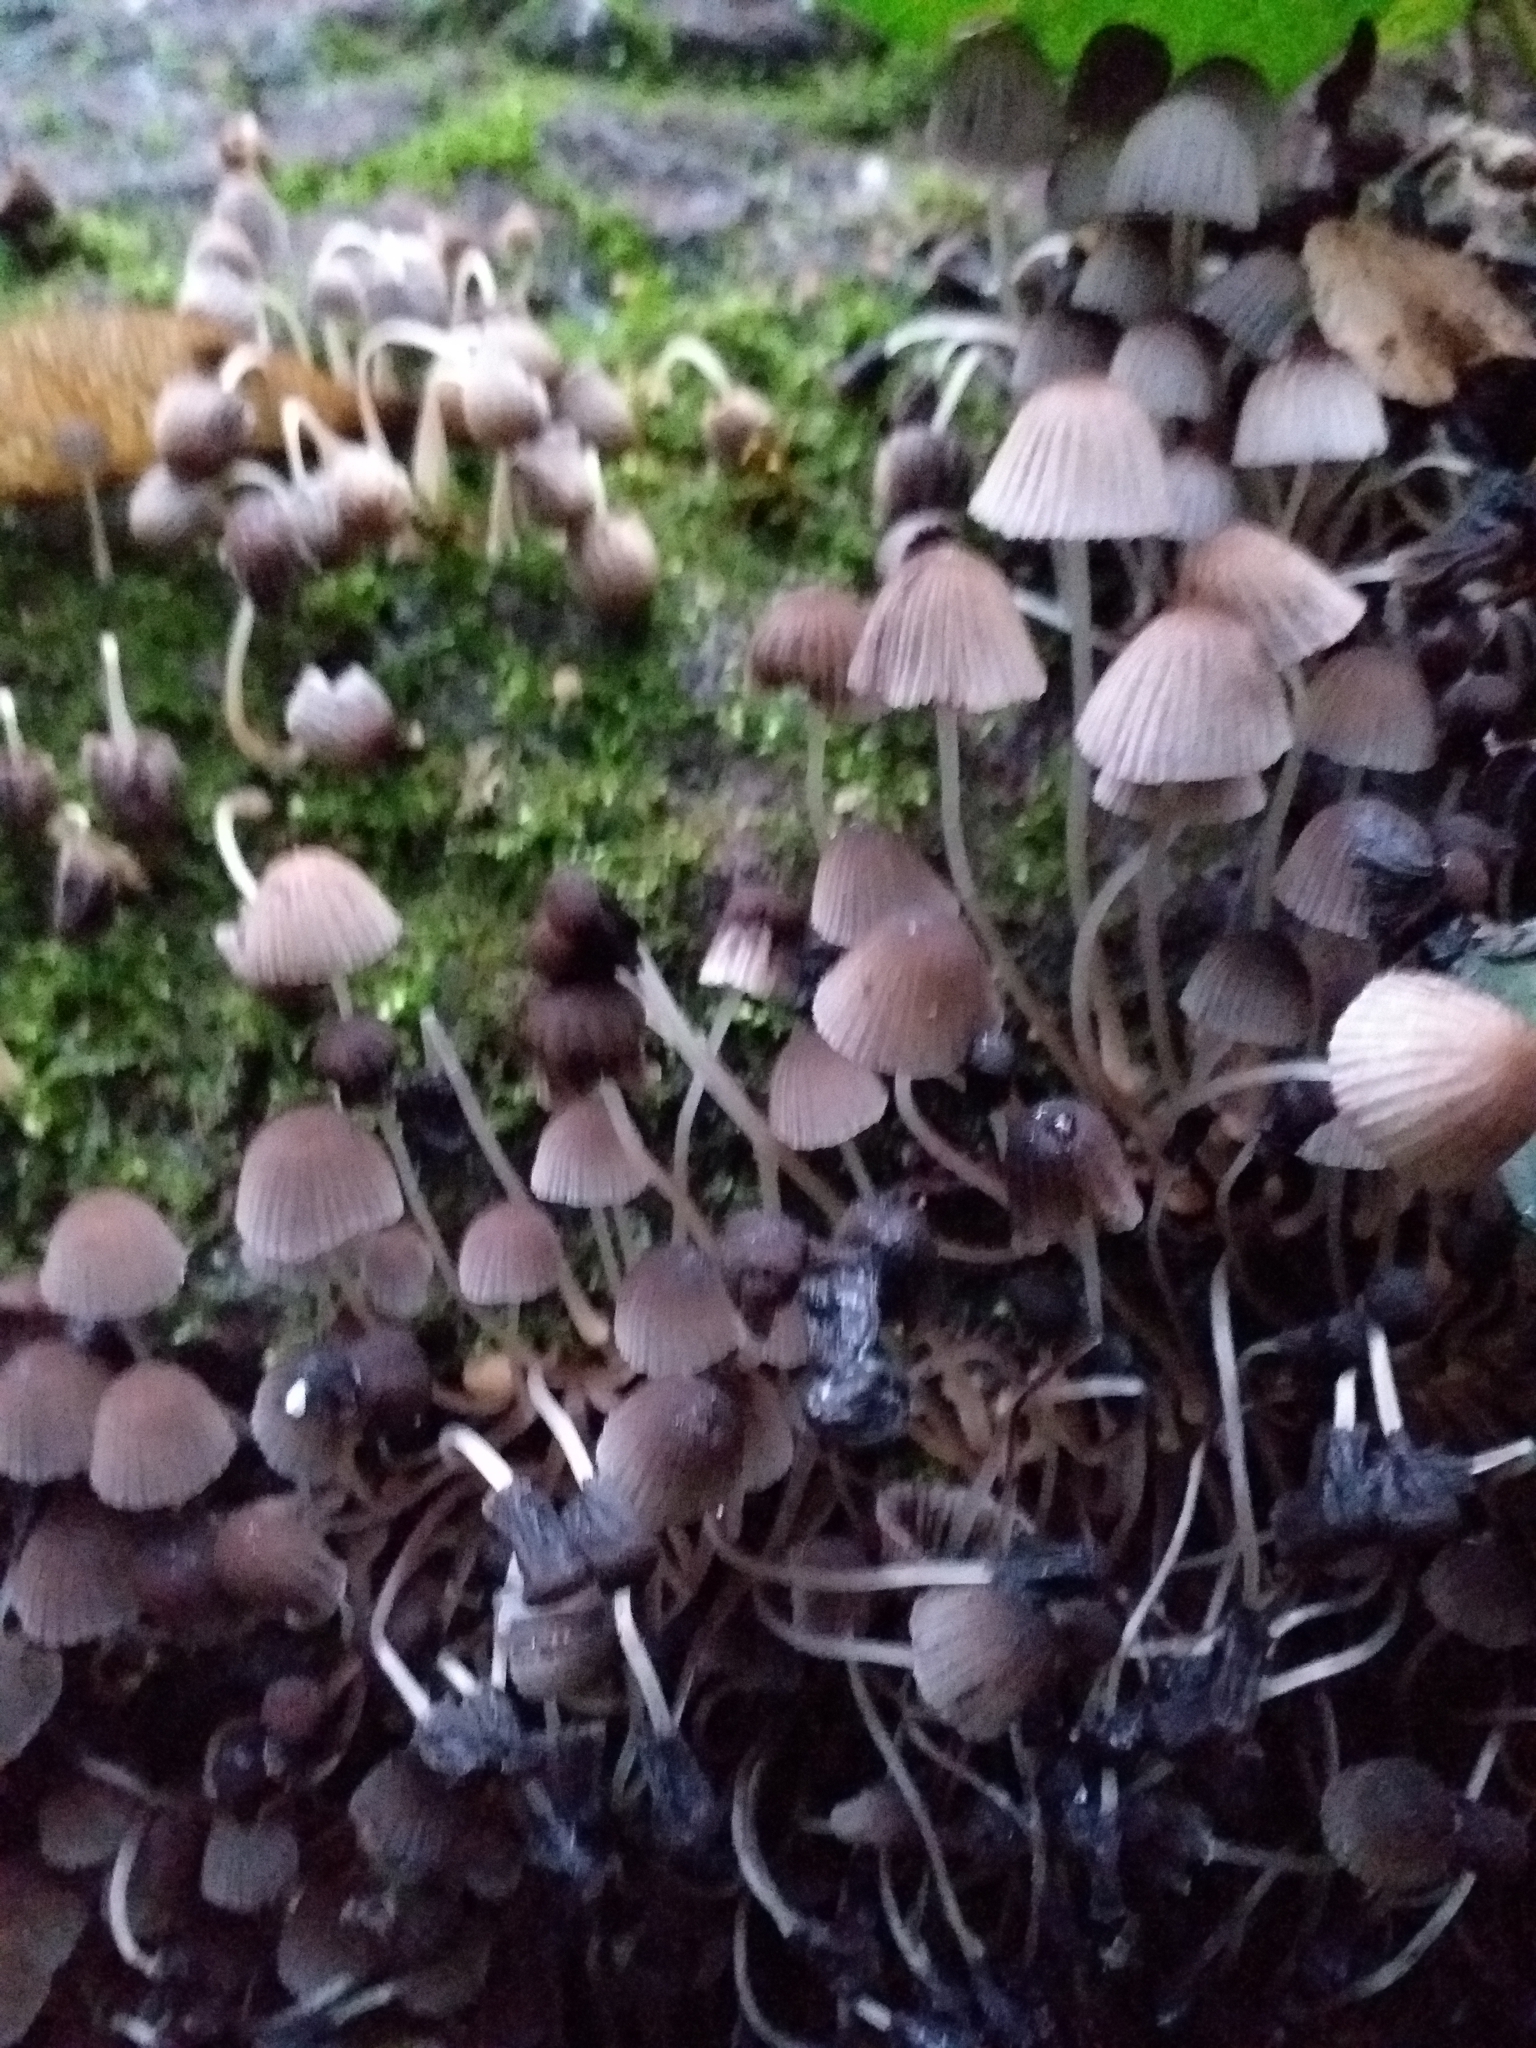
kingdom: Fungi
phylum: Basidiomycota
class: Agaricomycetes
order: Agaricales
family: Psathyrellaceae
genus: Coprinellus
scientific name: Coprinellus disseminatus
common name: Fairies' bonnets
